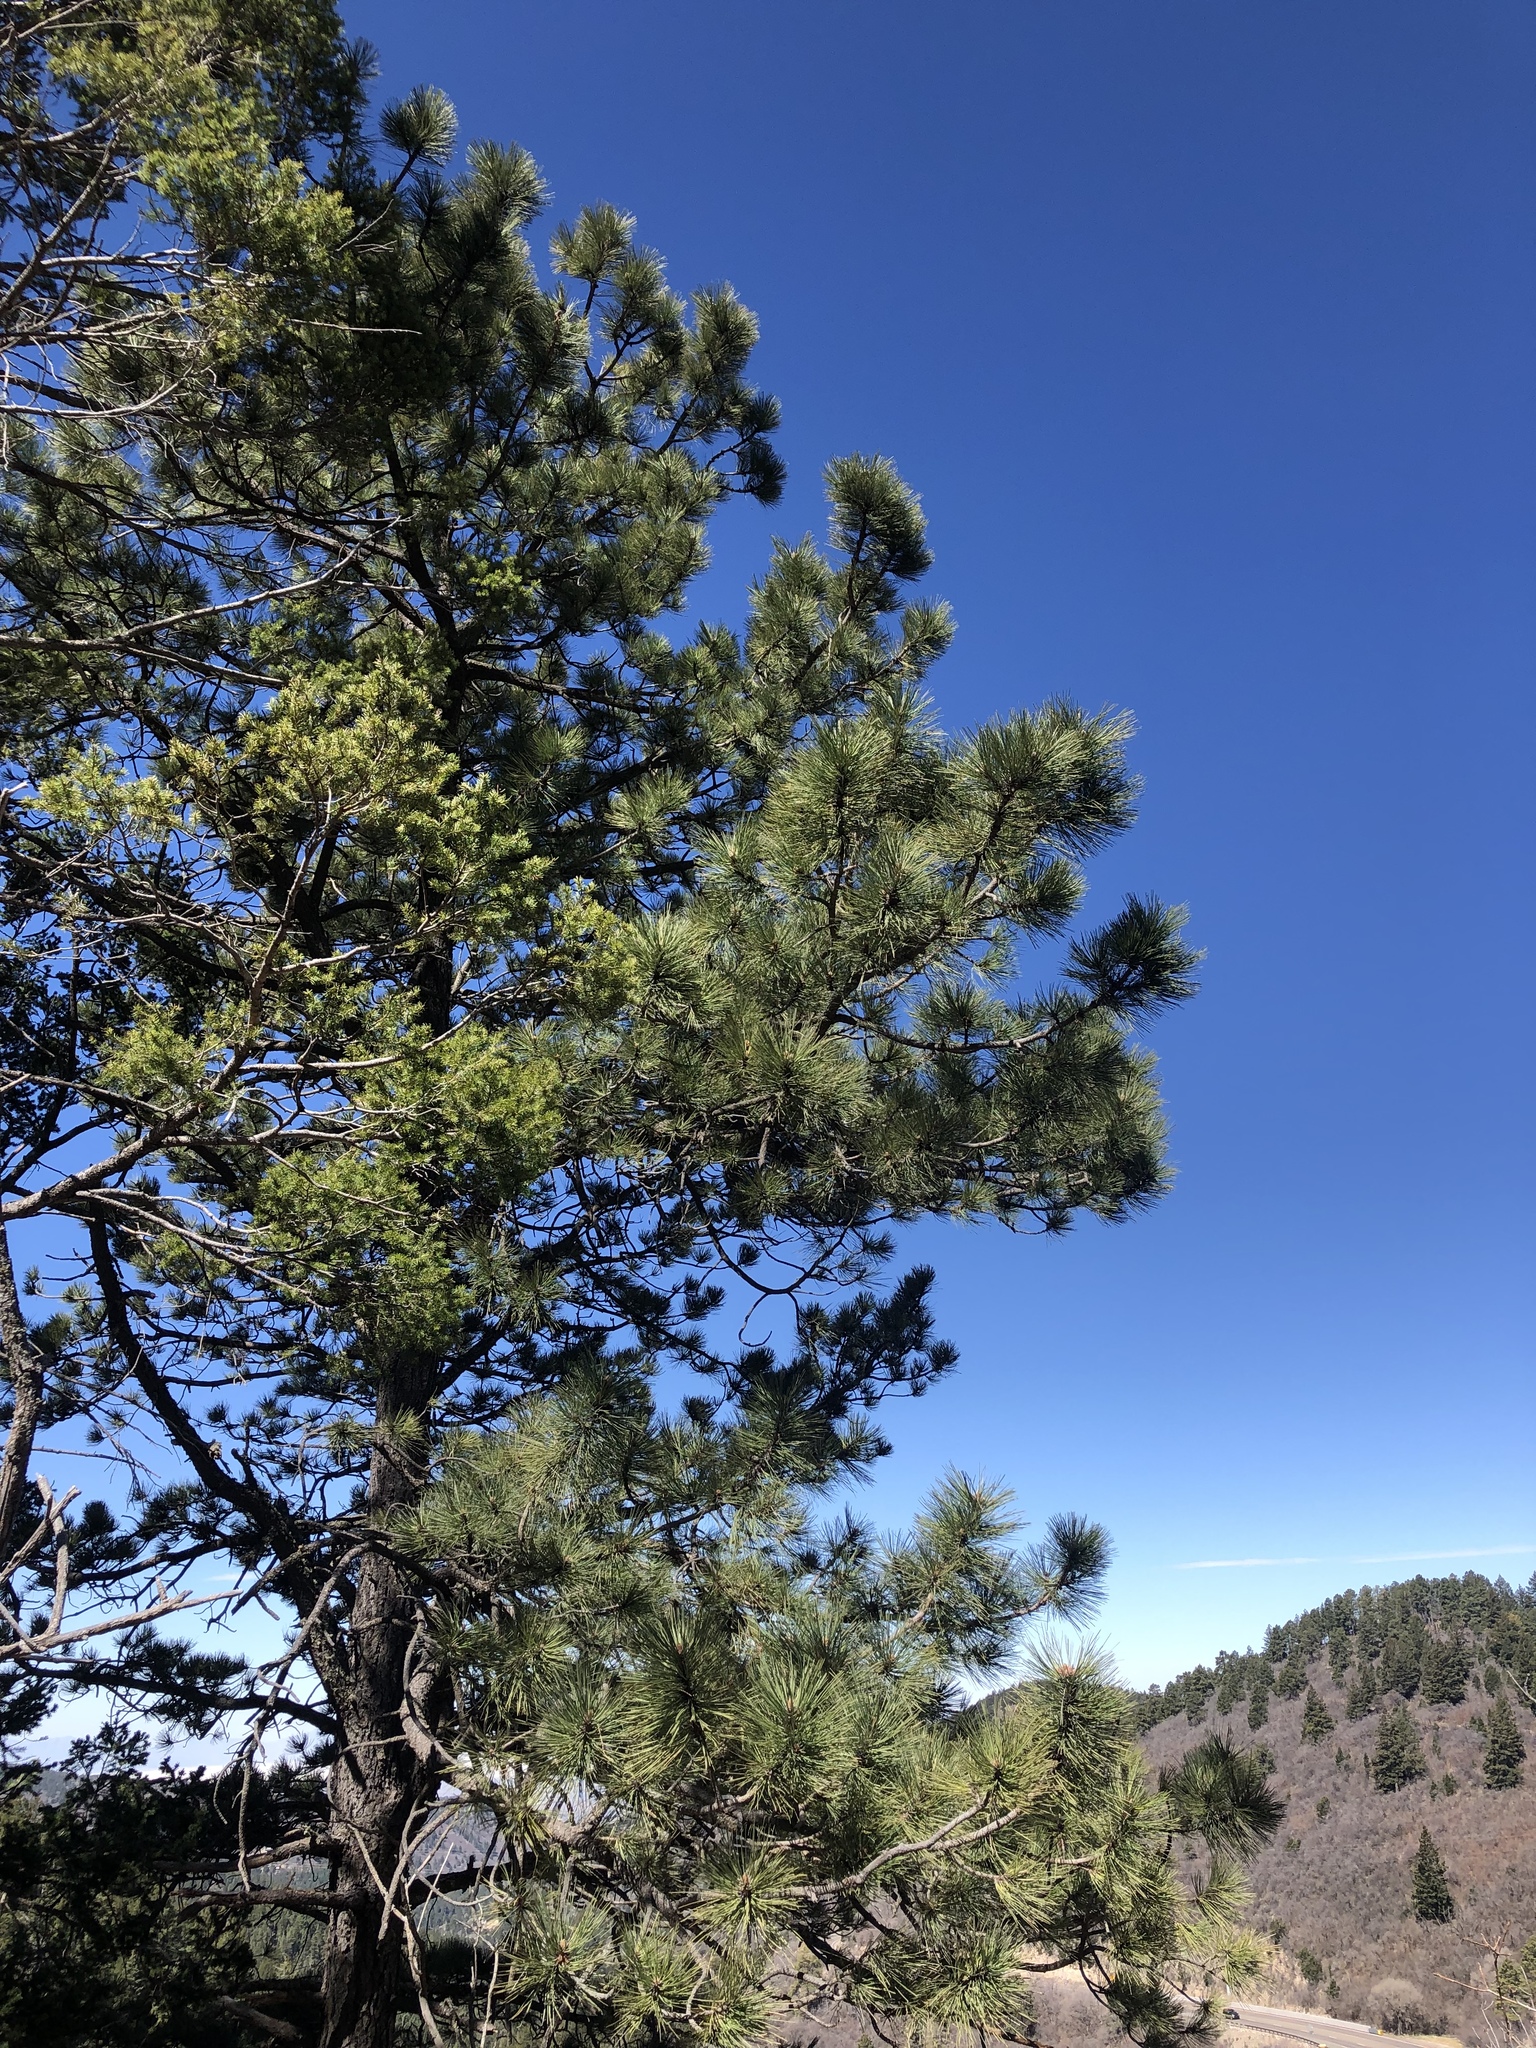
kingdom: Plantae
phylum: Tracheophyta
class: Pinopsida
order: Pinales
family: Pinaceae
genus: Pinus
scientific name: Pinus ponderosa
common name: Western yellow-pine
